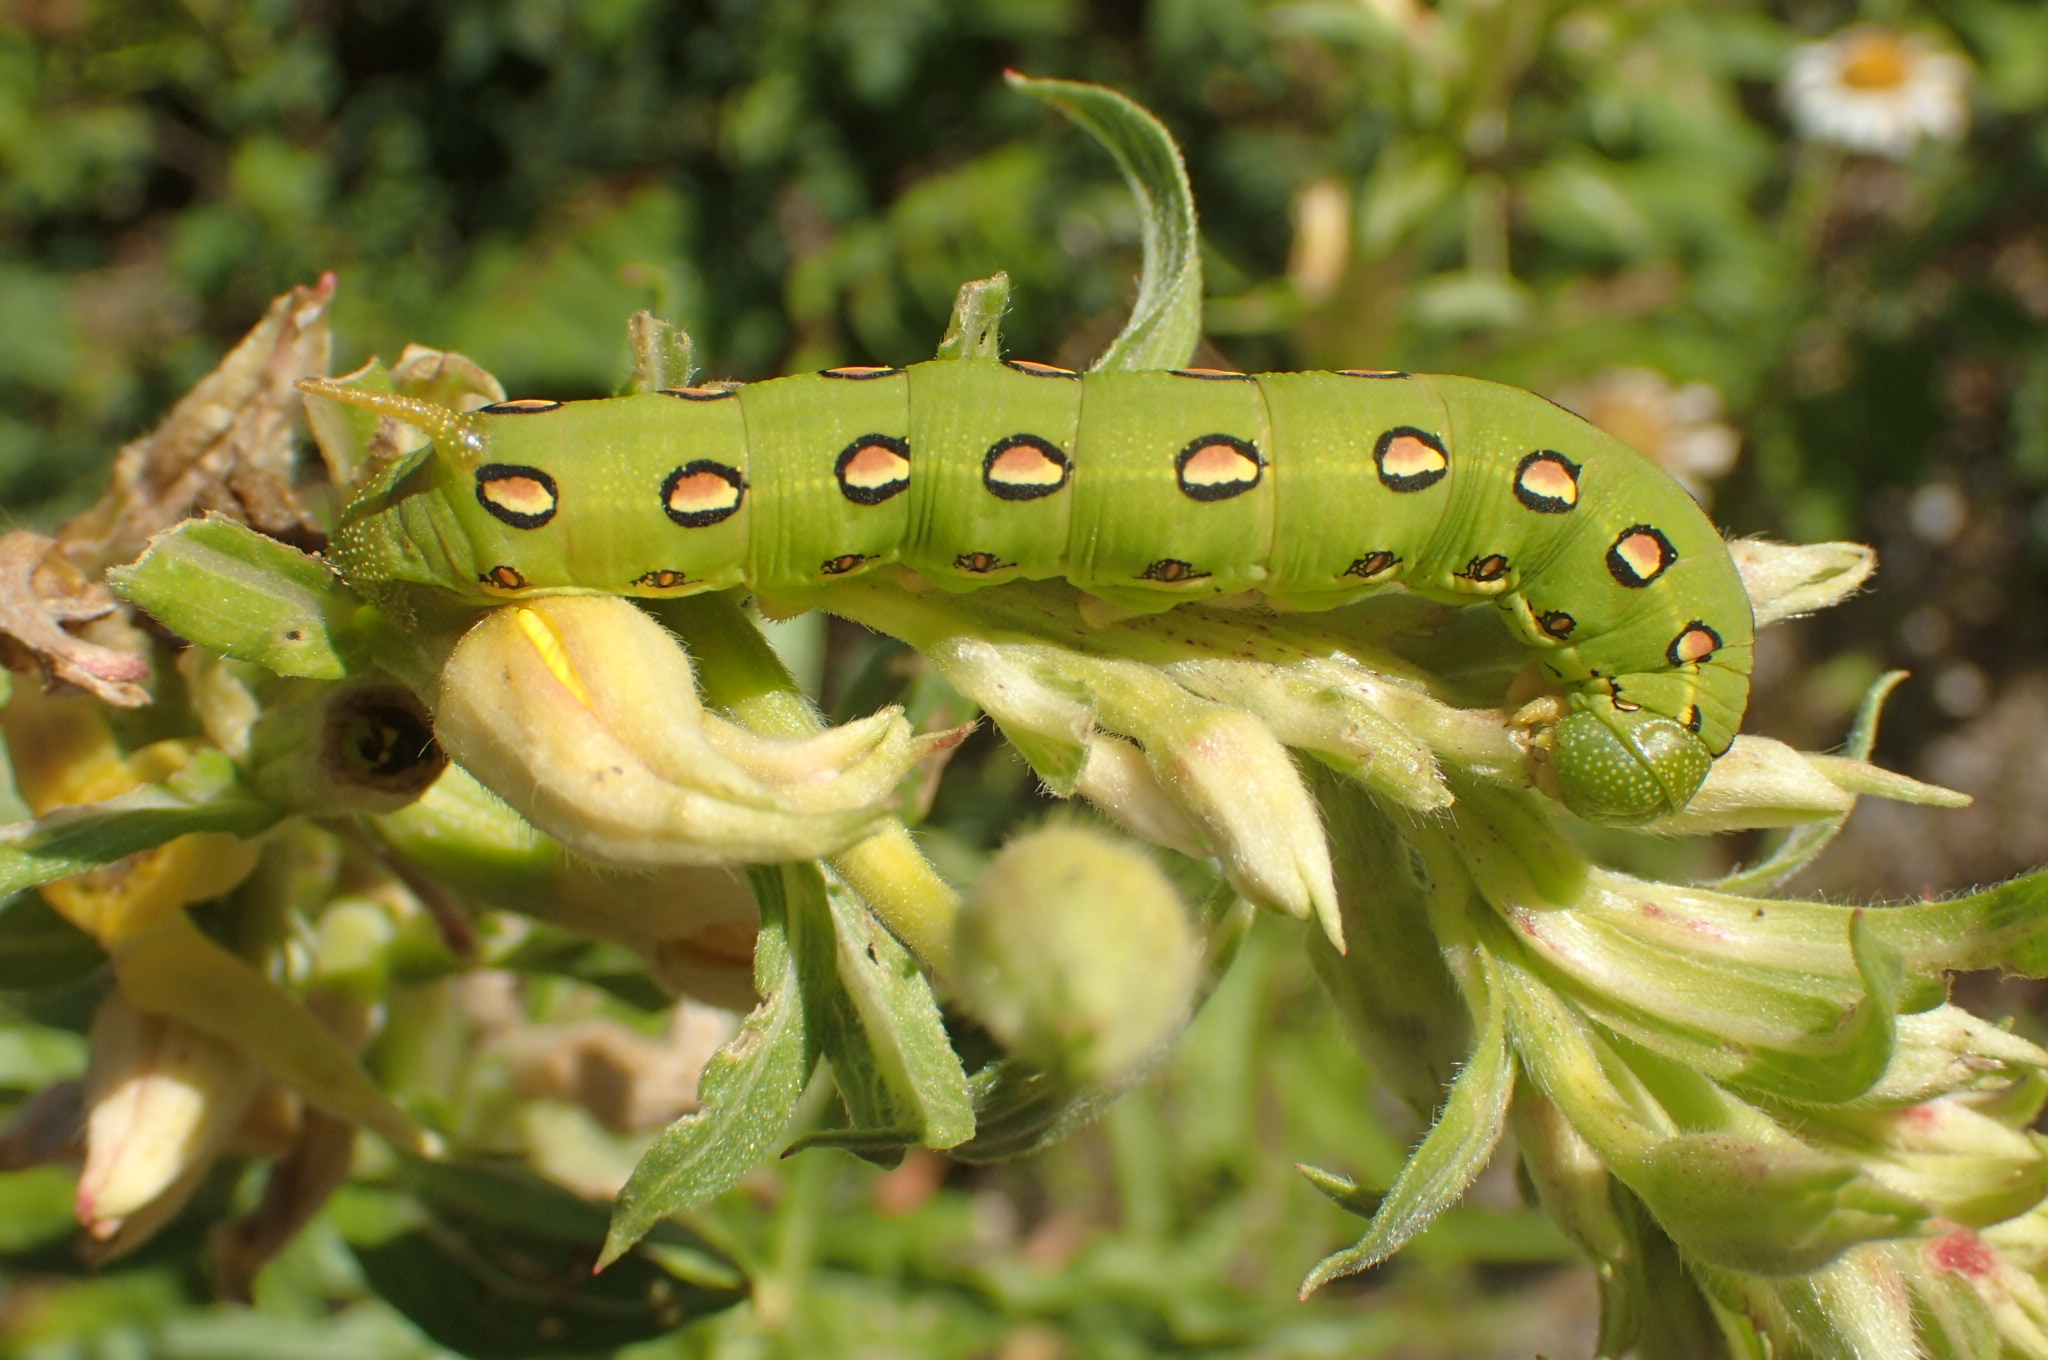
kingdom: Animalia
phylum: Arthropoda
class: Insecta
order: Lepidoptera
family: Sphingidae
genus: Hyles
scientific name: Hyles lineata
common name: White-lined sphinx
